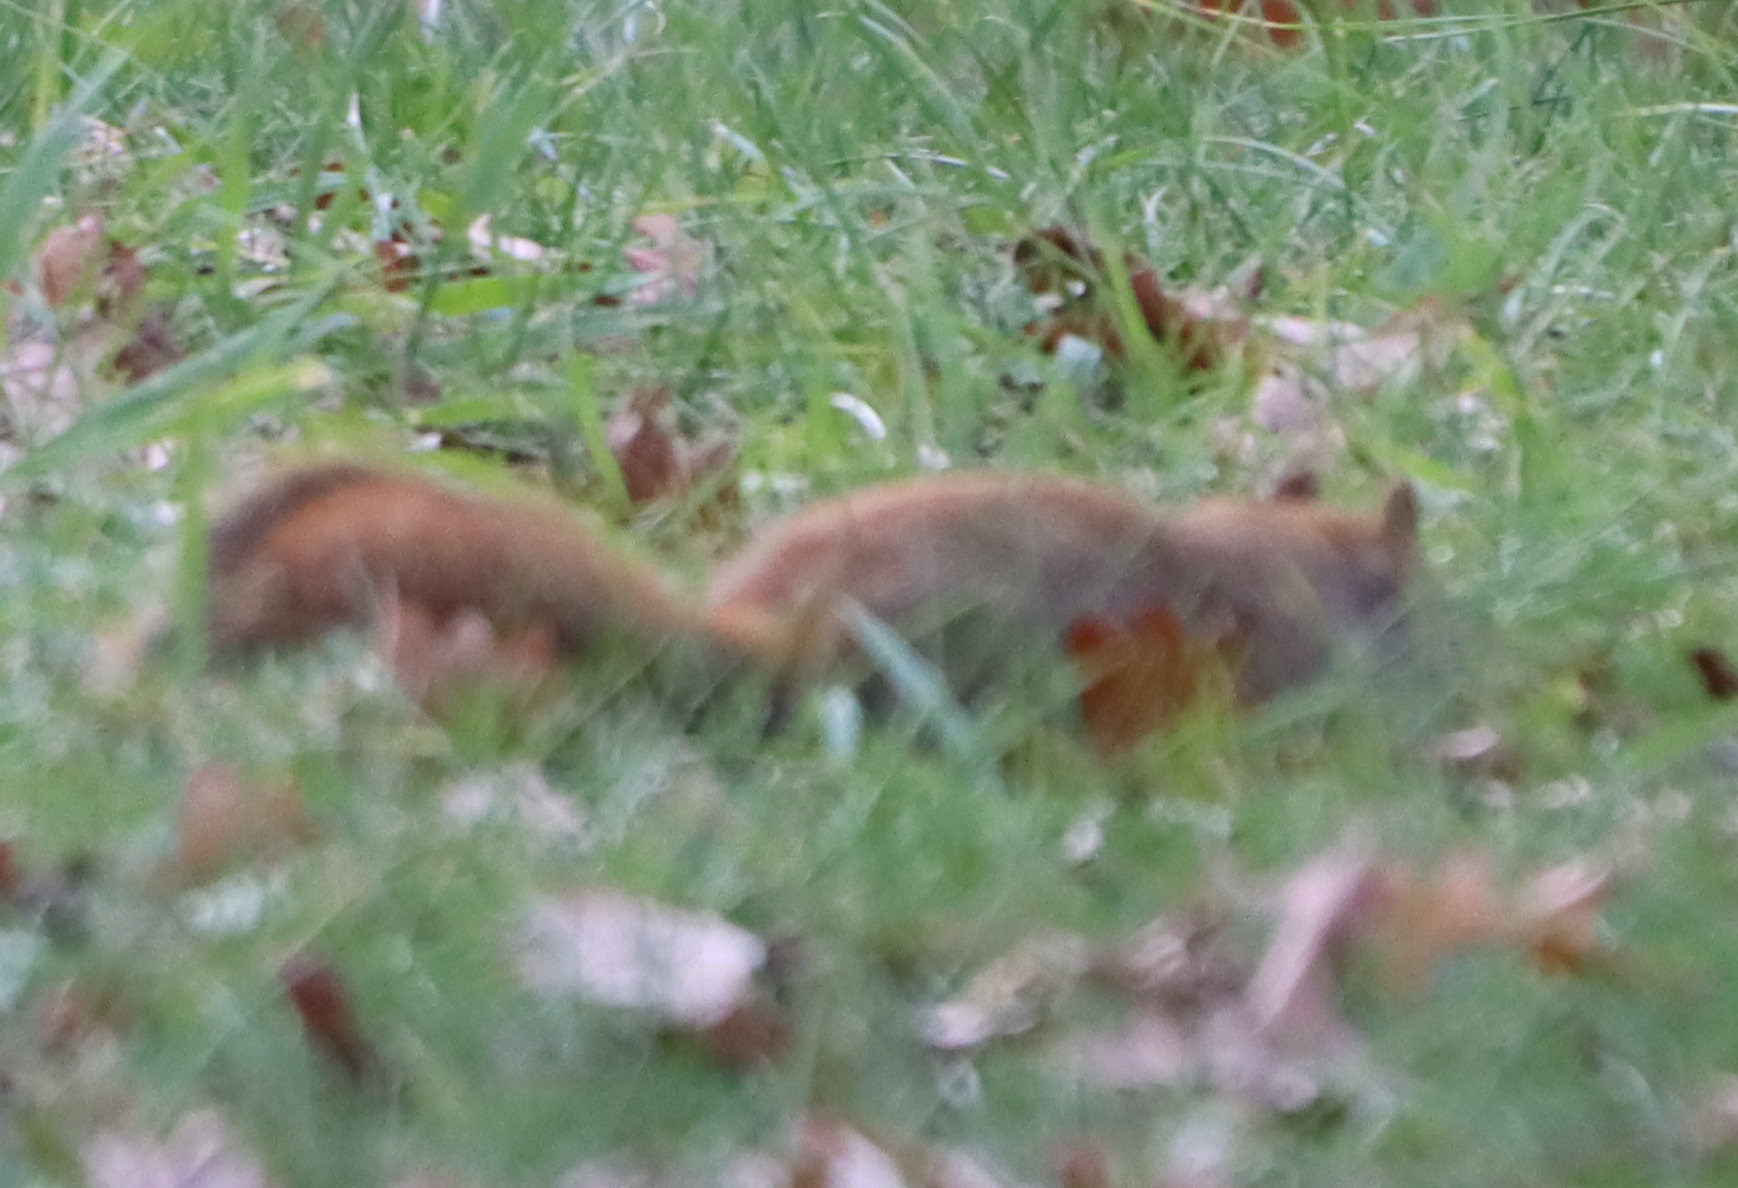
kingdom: Animalia
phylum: Chordata
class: Mammalia
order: Rodentia
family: Sciuridae
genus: Tamiasciurus
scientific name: Tamiasciurus hudsonicus
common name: Red squirrel
